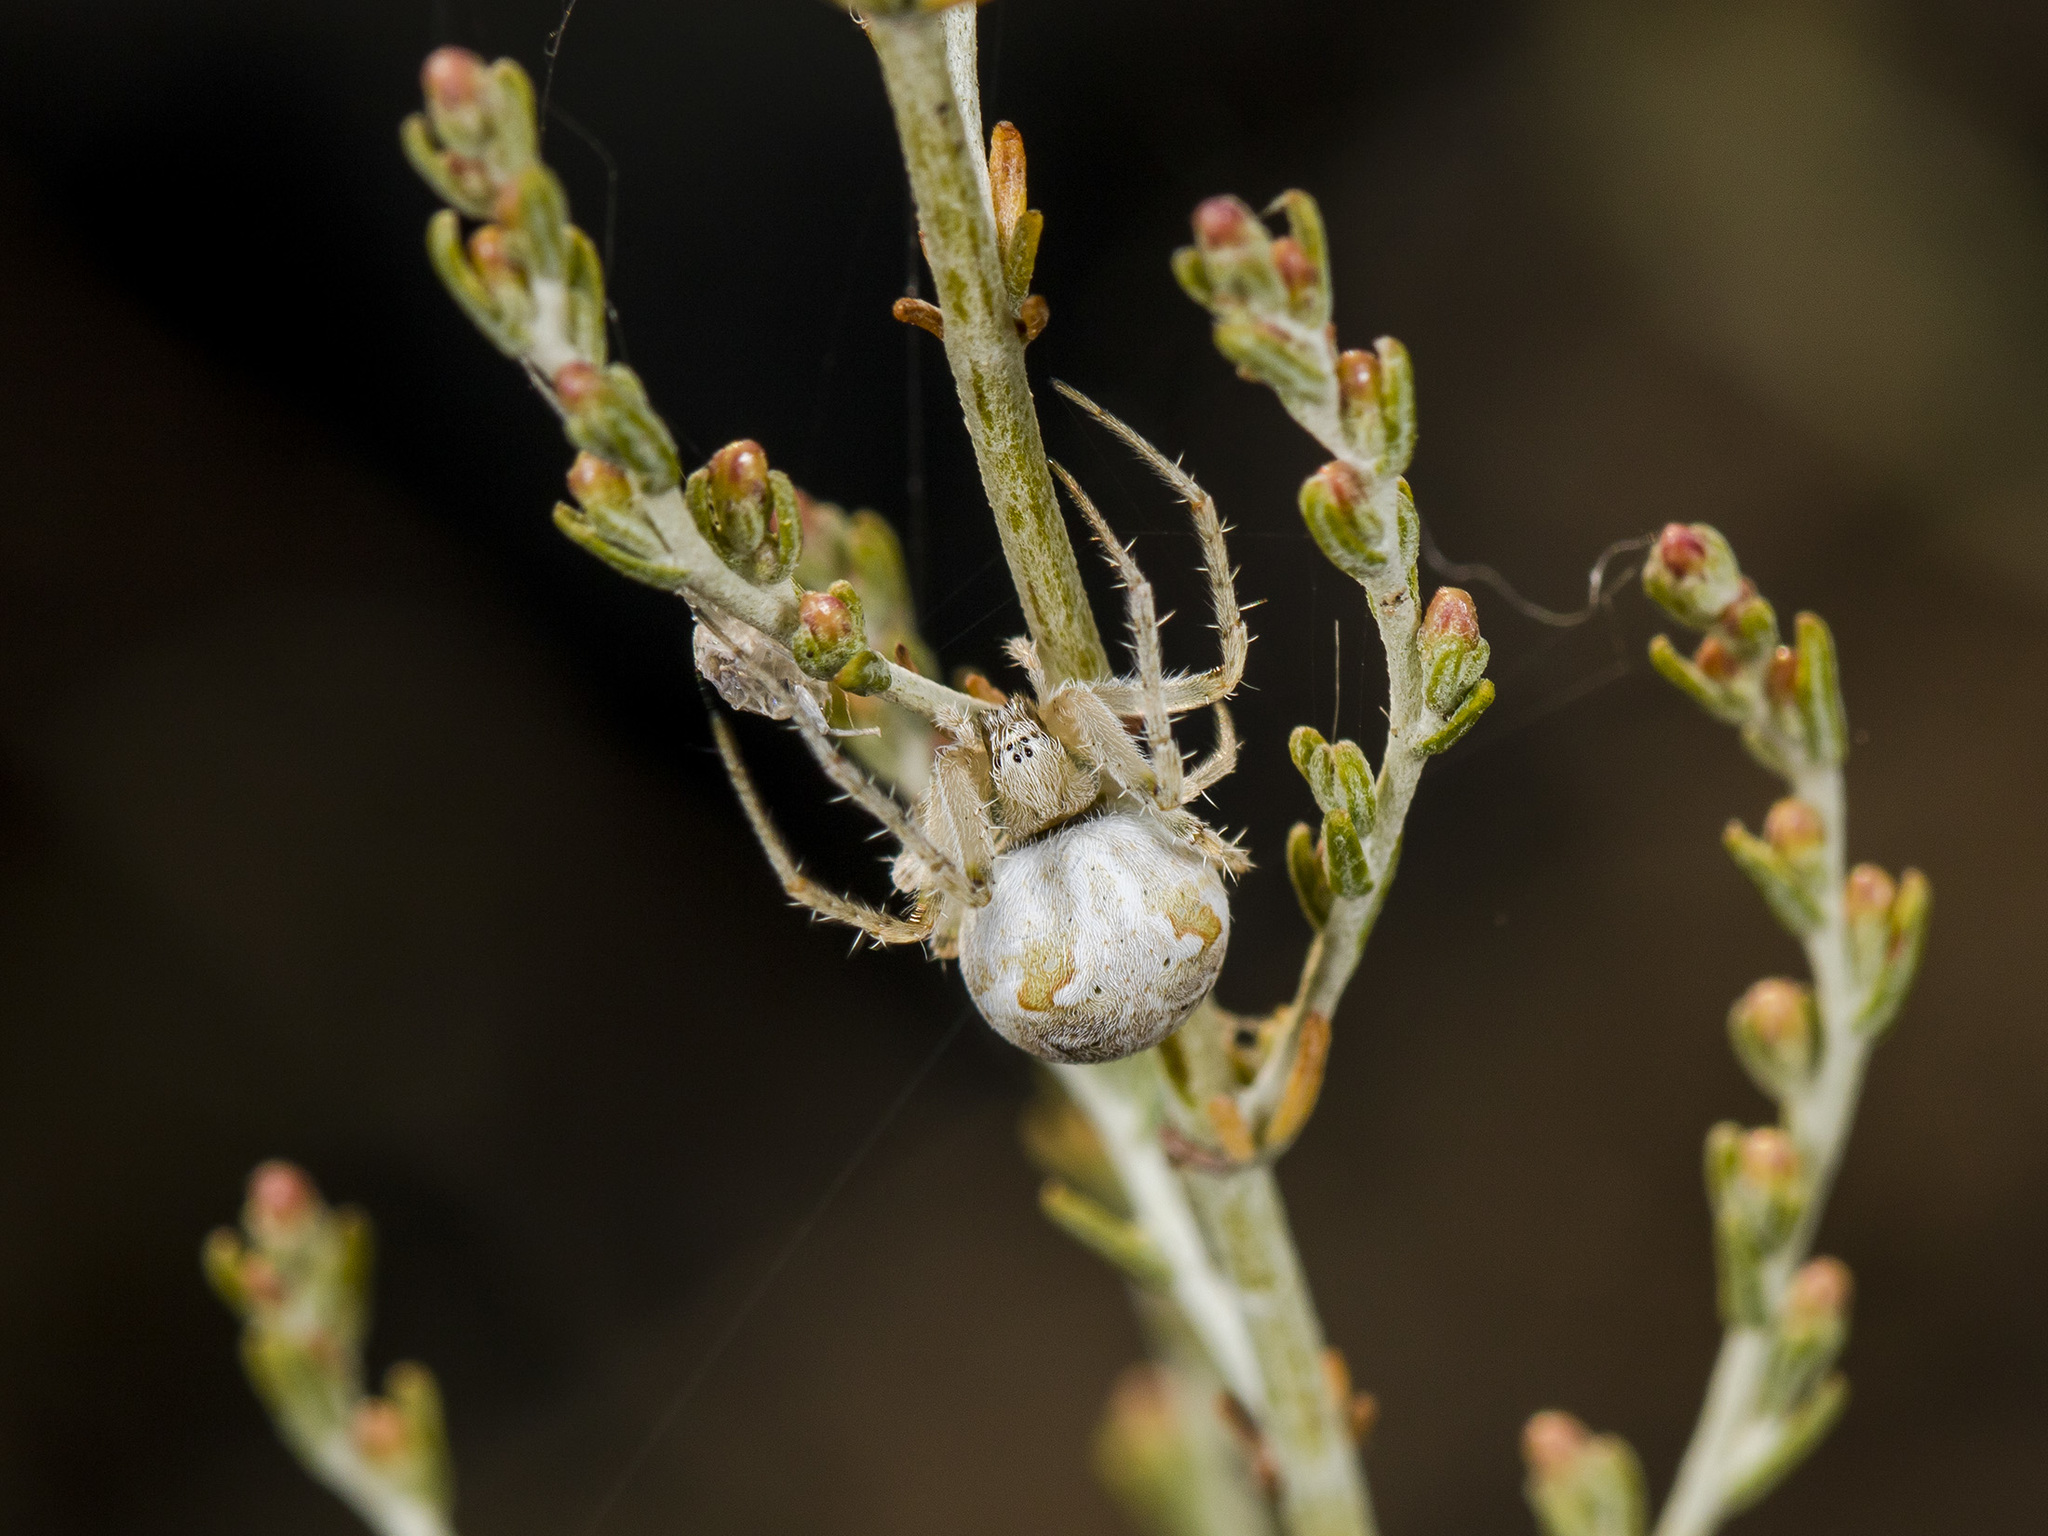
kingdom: Animalia
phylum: Arthropoda
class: Arachnida
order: Araneae
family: Araneidae
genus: Araneus
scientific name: Araneus pallasi
